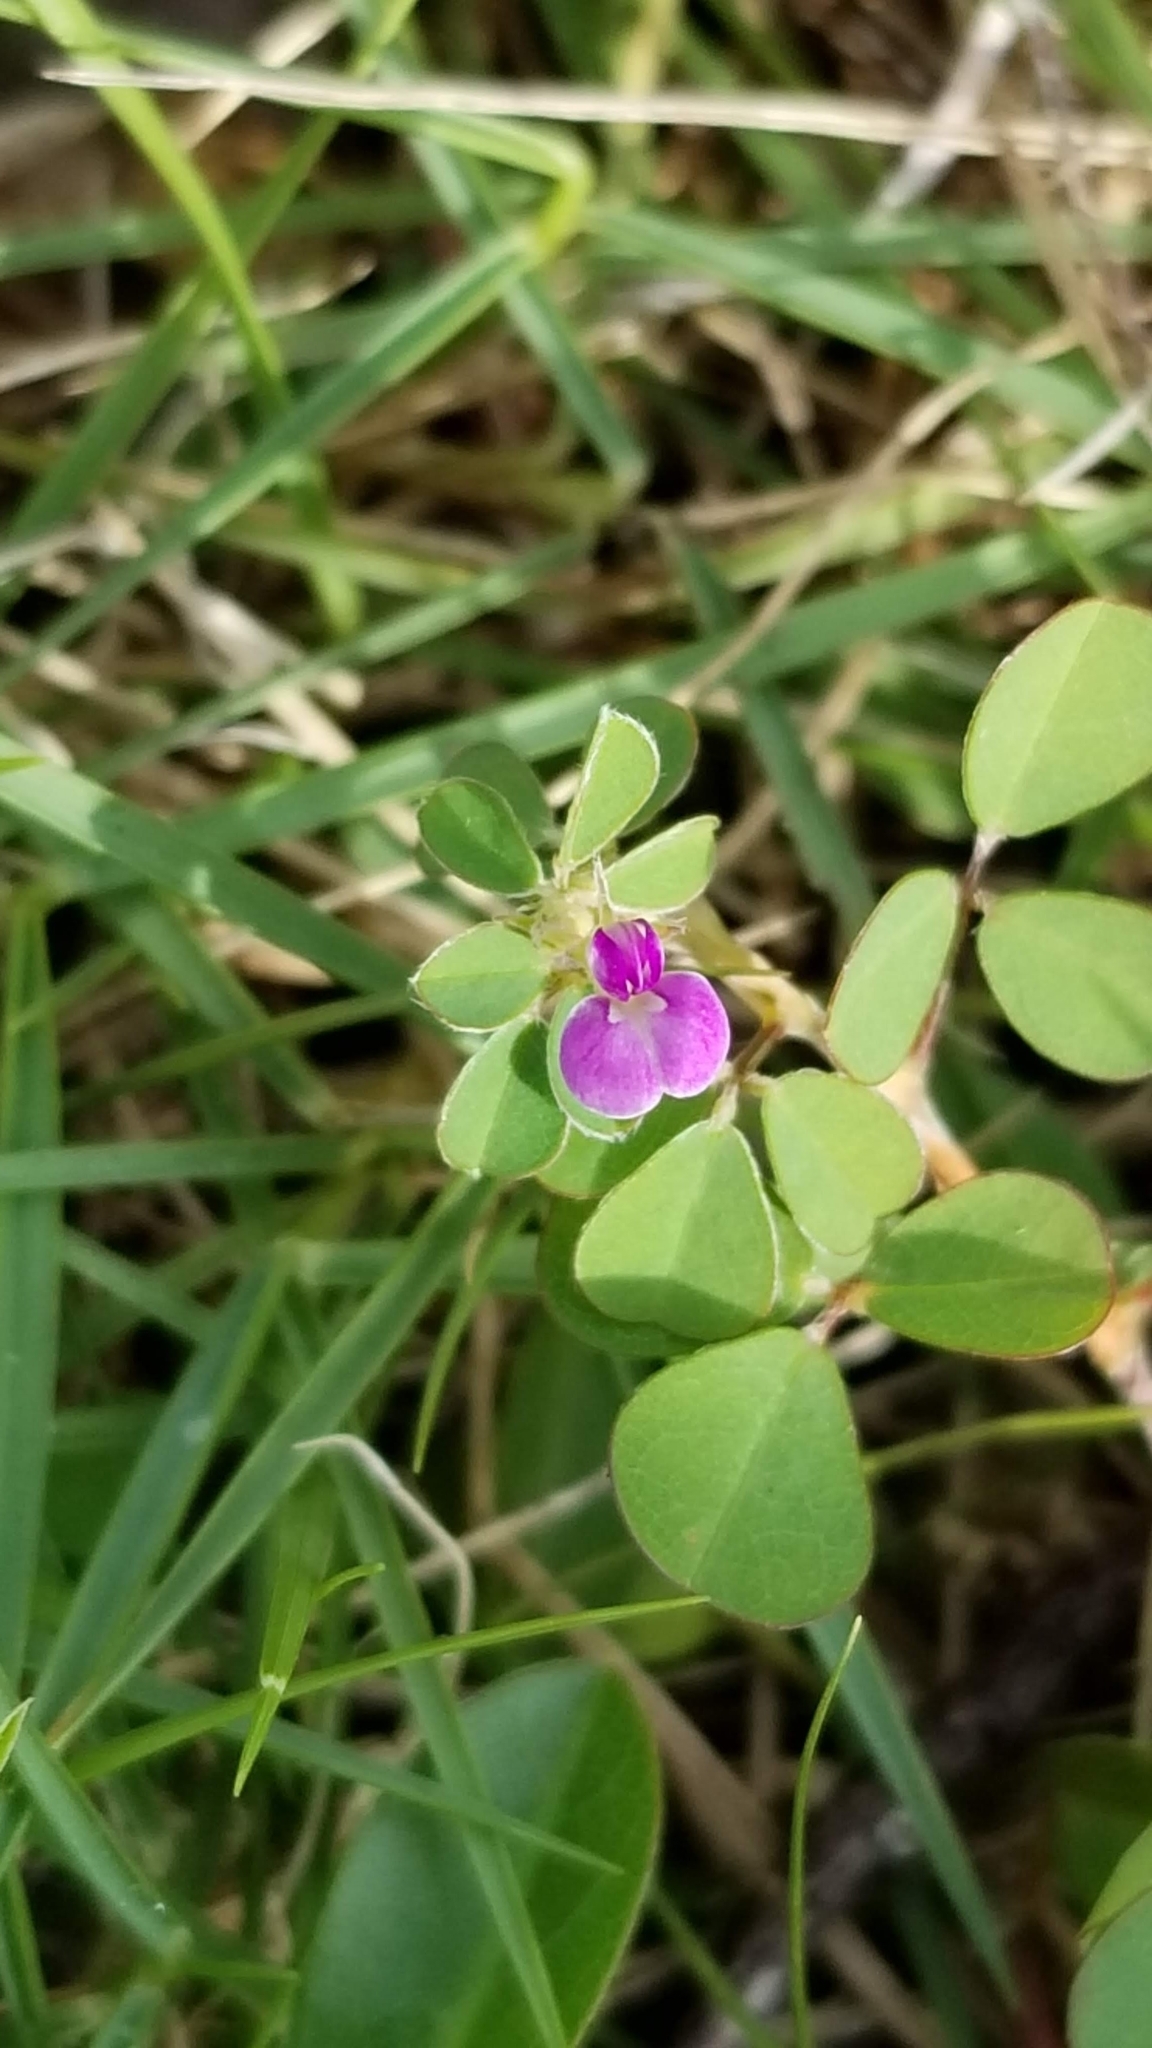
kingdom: Plantae
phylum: Tracheophyta
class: Magnoliopsida
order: Fabales
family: Fabaceae
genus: Grona
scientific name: Grona triflora
